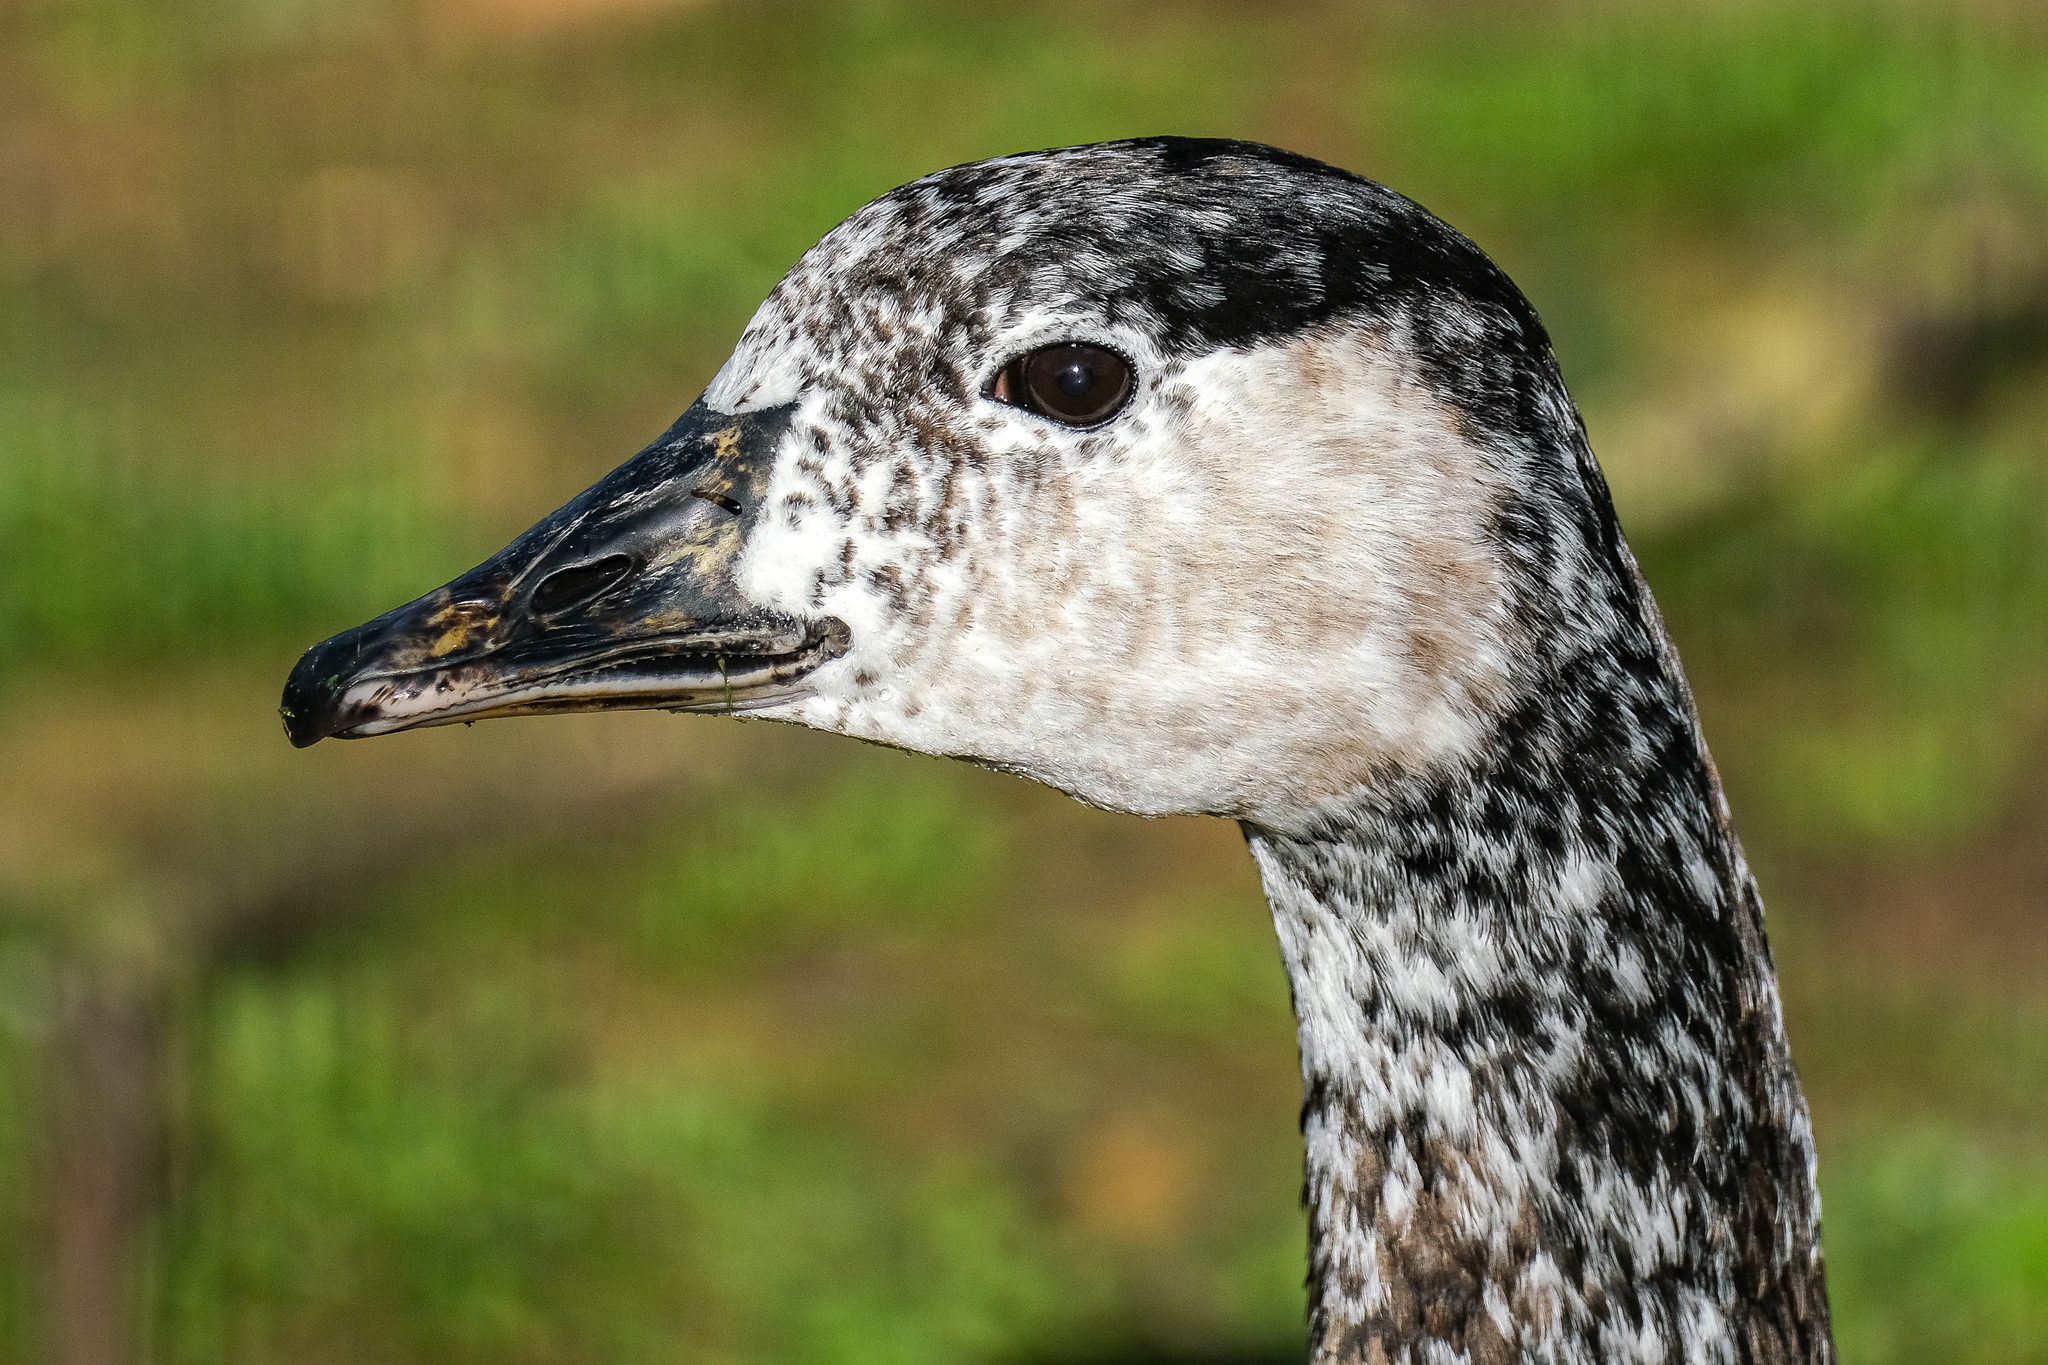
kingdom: Animalia
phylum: Chordata
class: Aves
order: Anseriformes
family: Anatidae
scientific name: Anatidae
